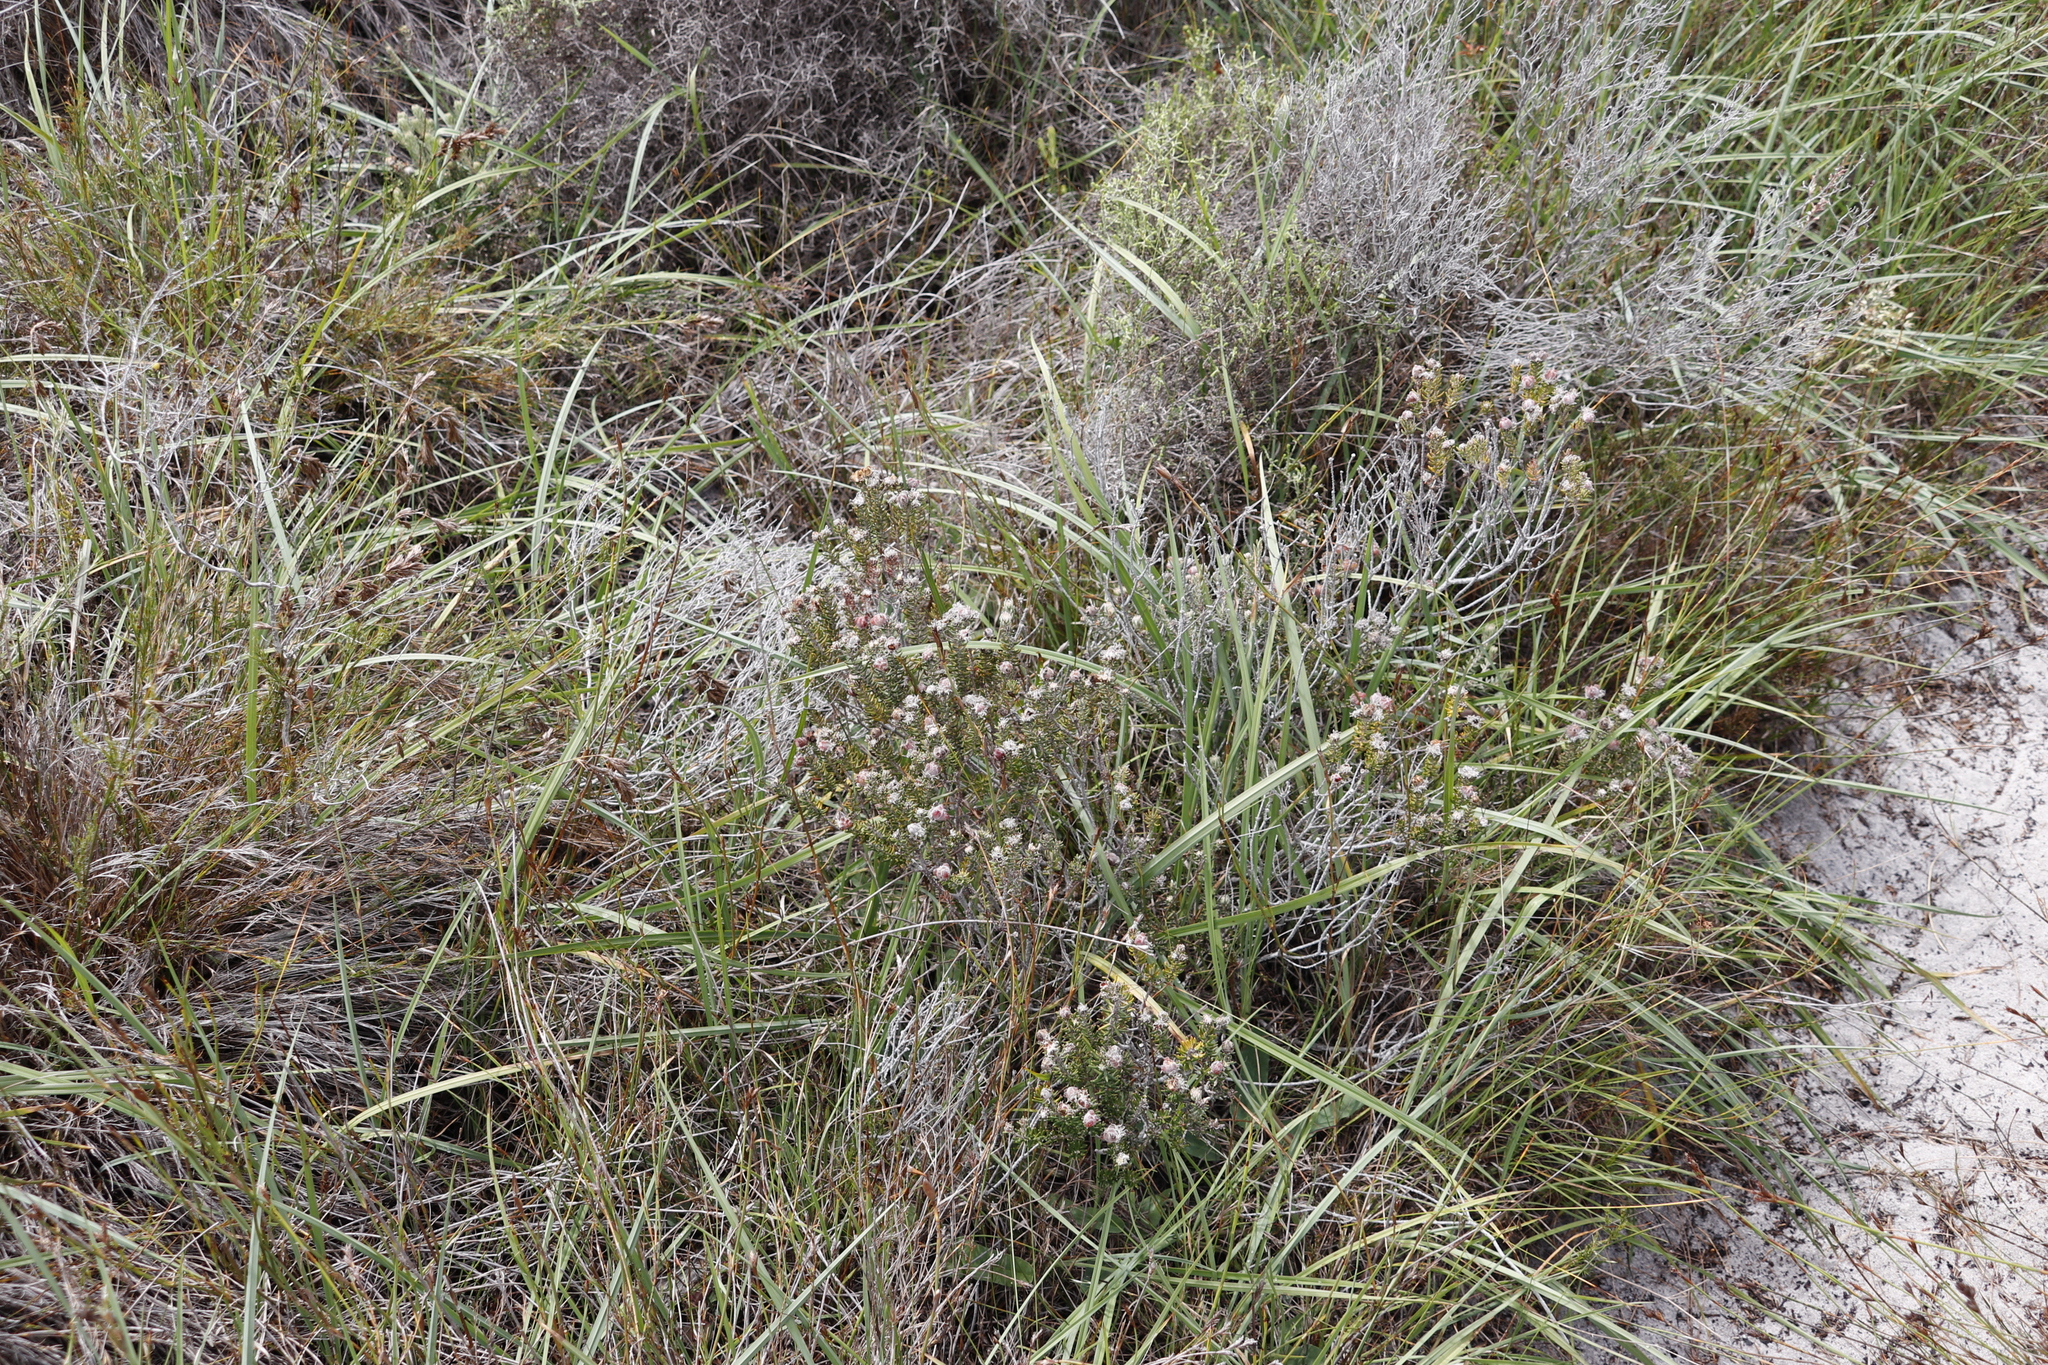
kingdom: Plantae
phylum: Tracheophyta
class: Magnoliopsida
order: Rosales
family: Rhamnaceae
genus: Trichocephalus
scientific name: Trichocephalus stipularis
